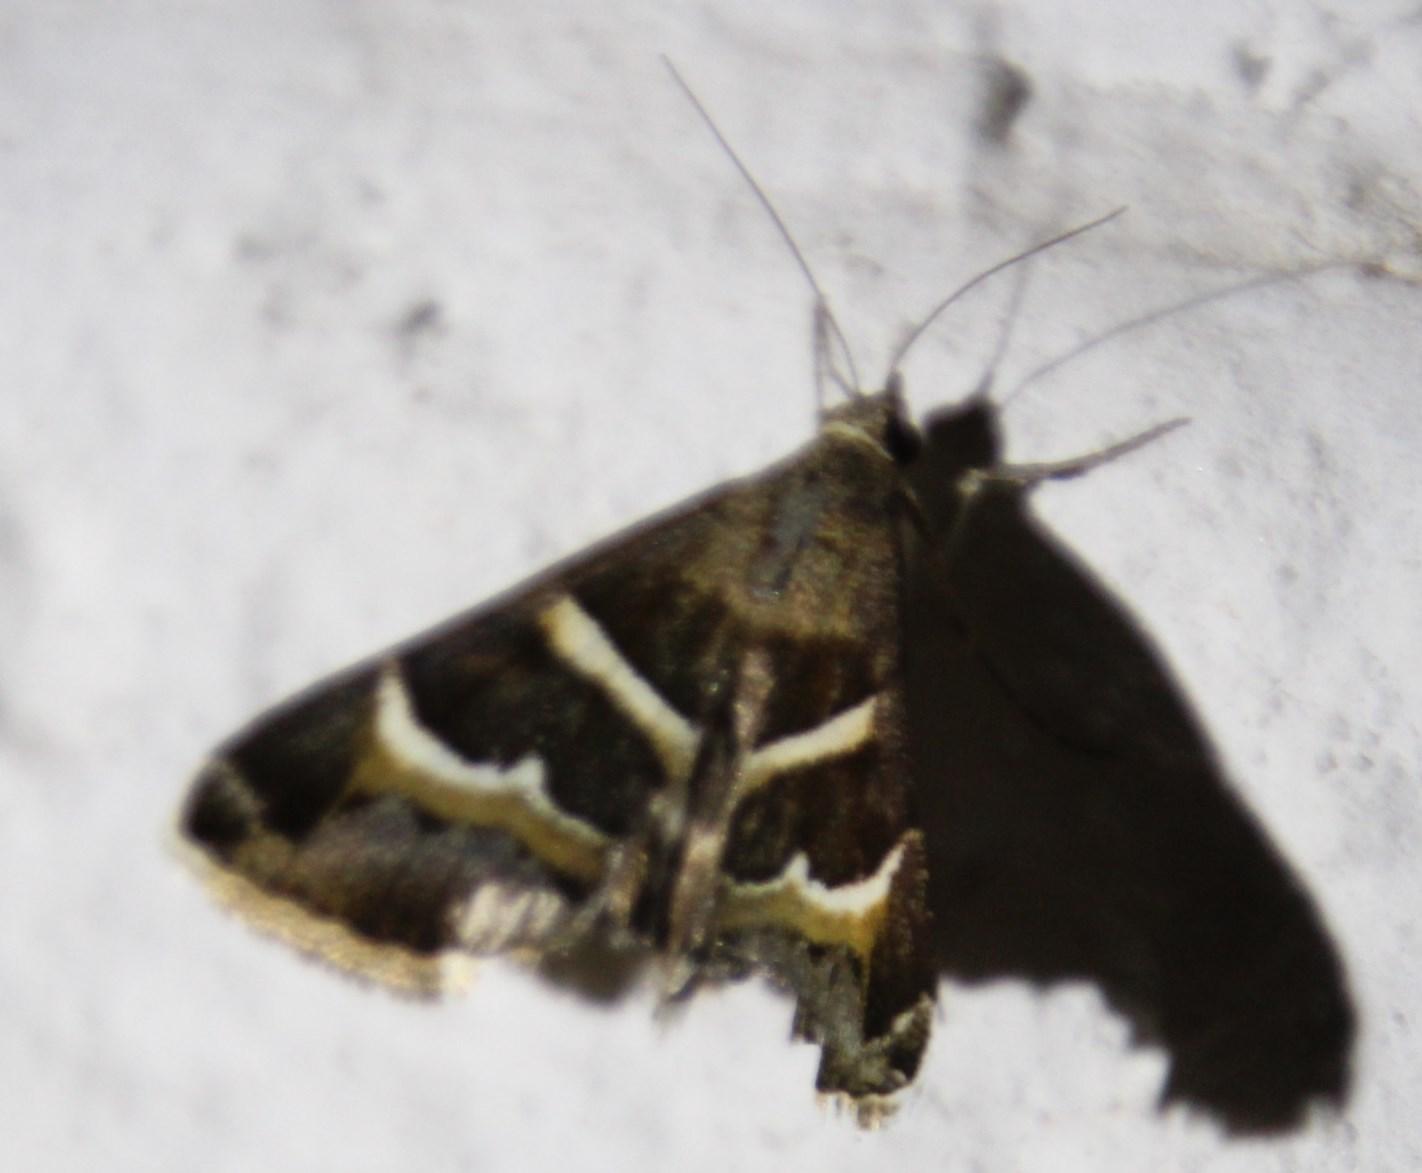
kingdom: Animalia
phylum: Arthropoda
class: Insecta
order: Lepidoptera
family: Erebidae
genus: Grammodes
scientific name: Grammodes stolida
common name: Geometrician
